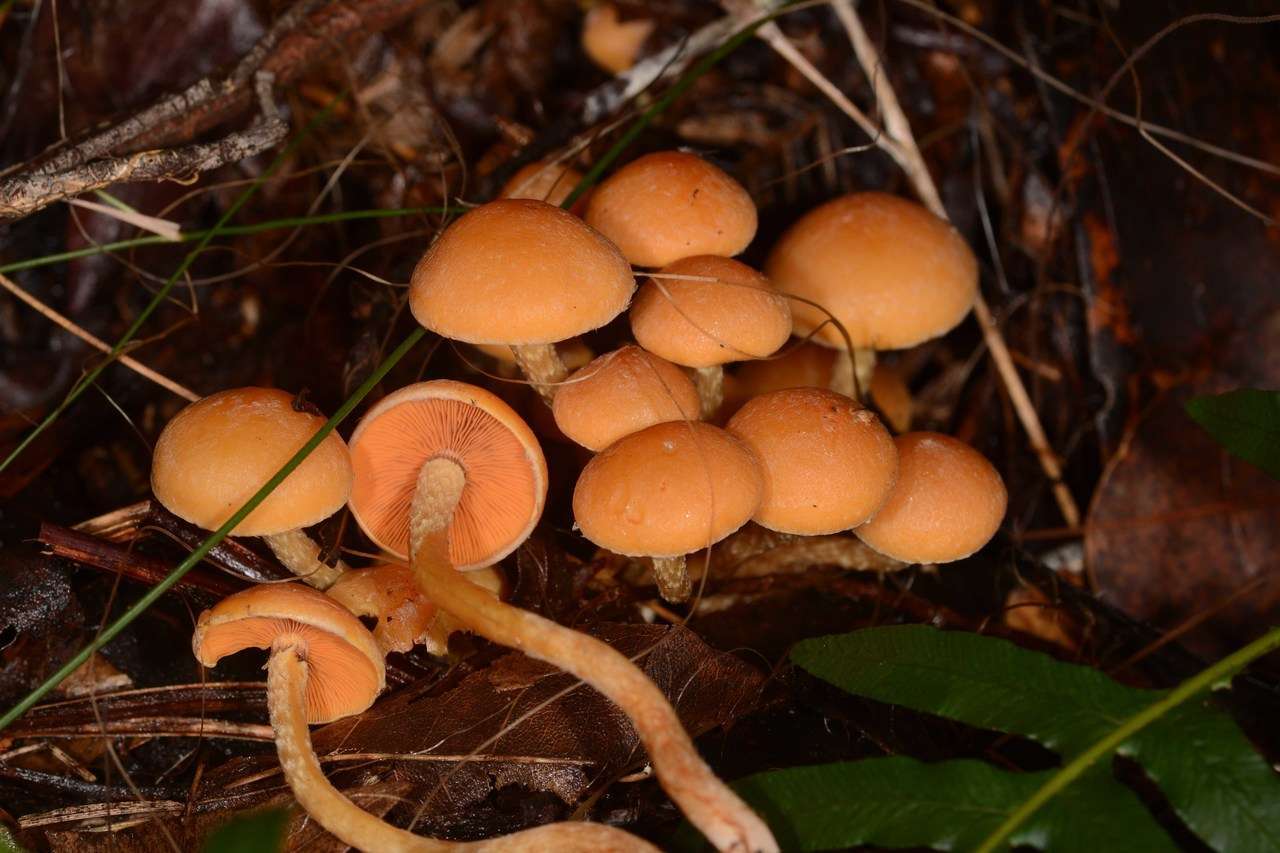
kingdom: Fungi
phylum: Basidiomycota
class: Agaricomycetes
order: Agaricales
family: Strophariaceae
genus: Hypholoma
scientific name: Hypholoma fasciculare
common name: Sulphur tuft
